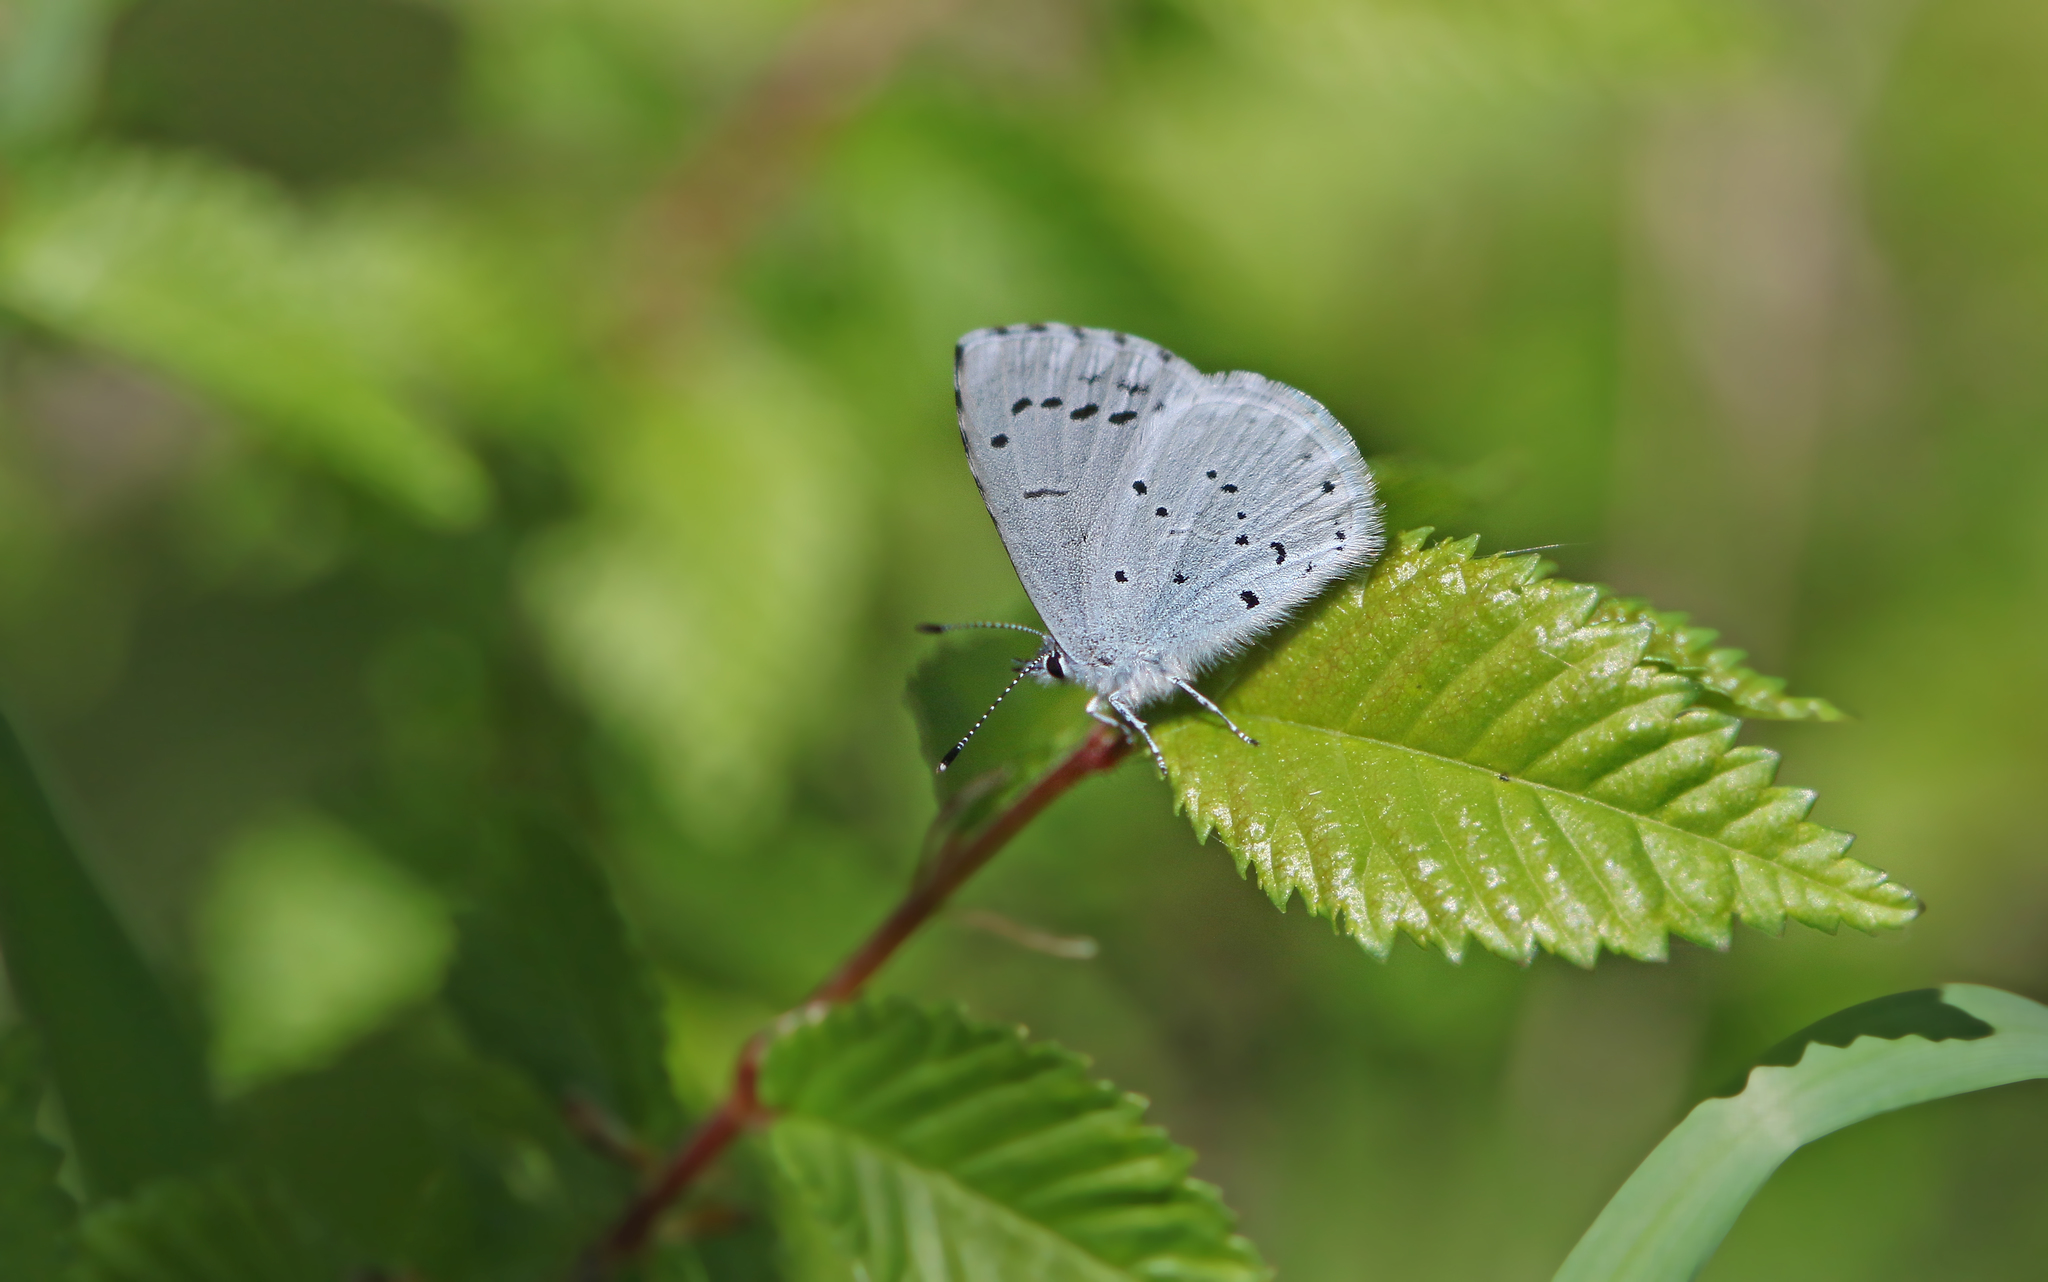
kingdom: Animalia
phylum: Arthropoda
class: Insecta
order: Lepidoptera
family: Lycaenidae
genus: Celastrina
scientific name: Celastrina argiolus
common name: Holly blue
